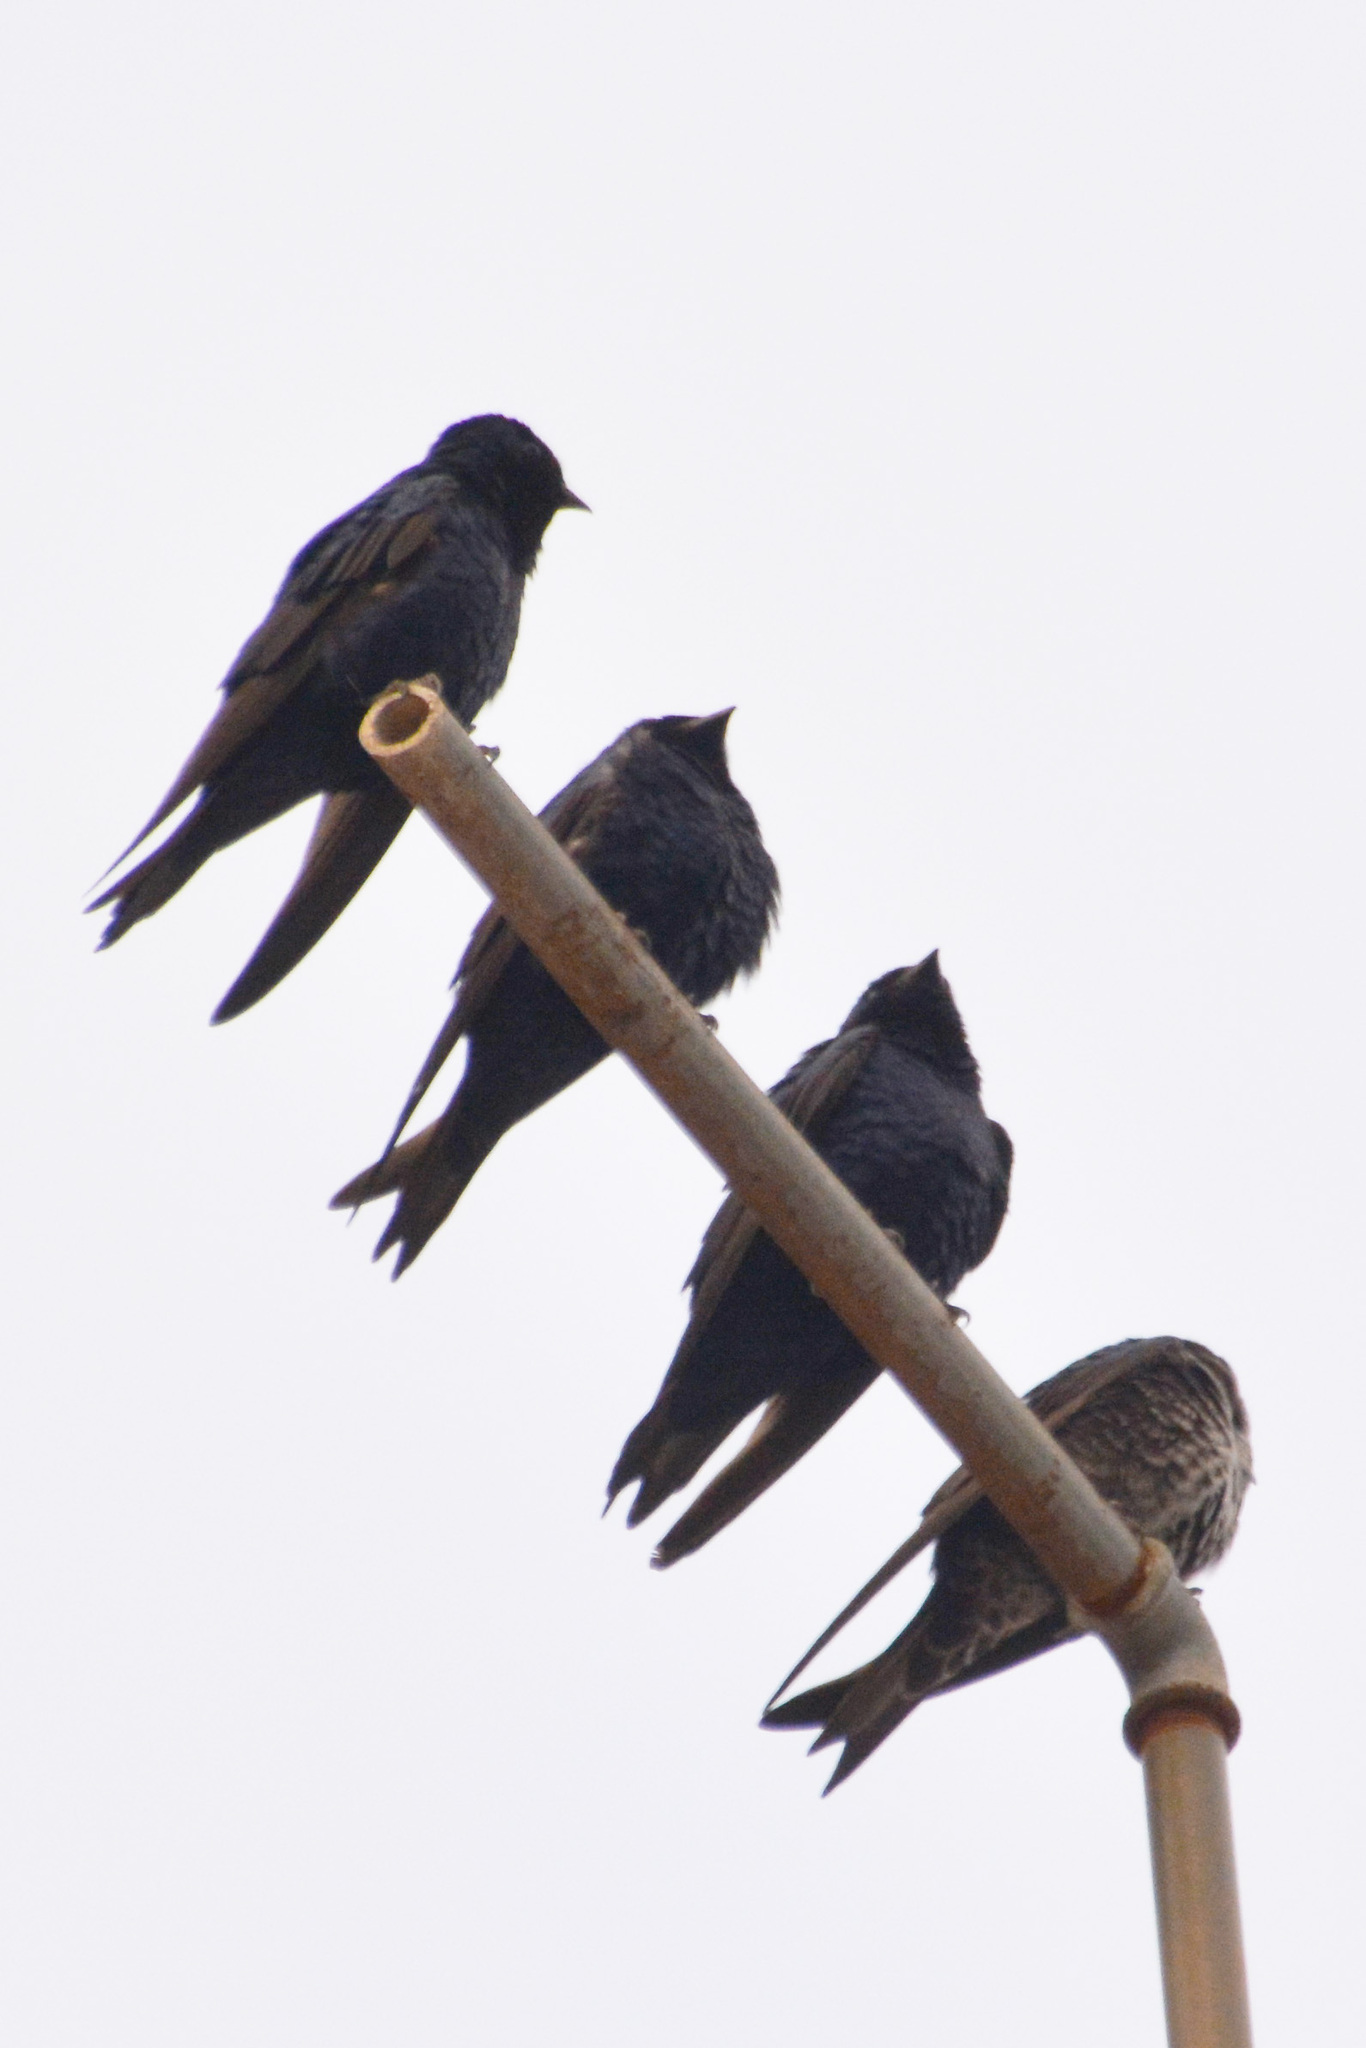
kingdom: Animalia
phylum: Chordata
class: Aves
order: Passeriformes
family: Hirundinidae
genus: Progne
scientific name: Progne elegans
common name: Southern martin
